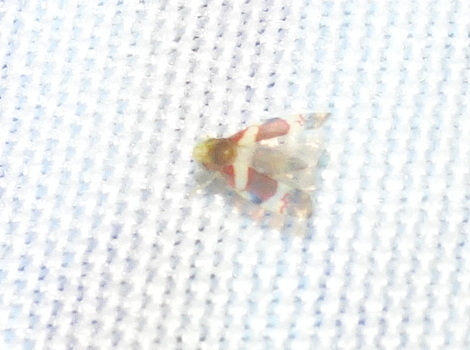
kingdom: Animalia
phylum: Arthropoda
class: Insecta
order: Hemiptera
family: Cicadellidae
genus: Erythroneura
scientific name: Erythroneura bistrata
